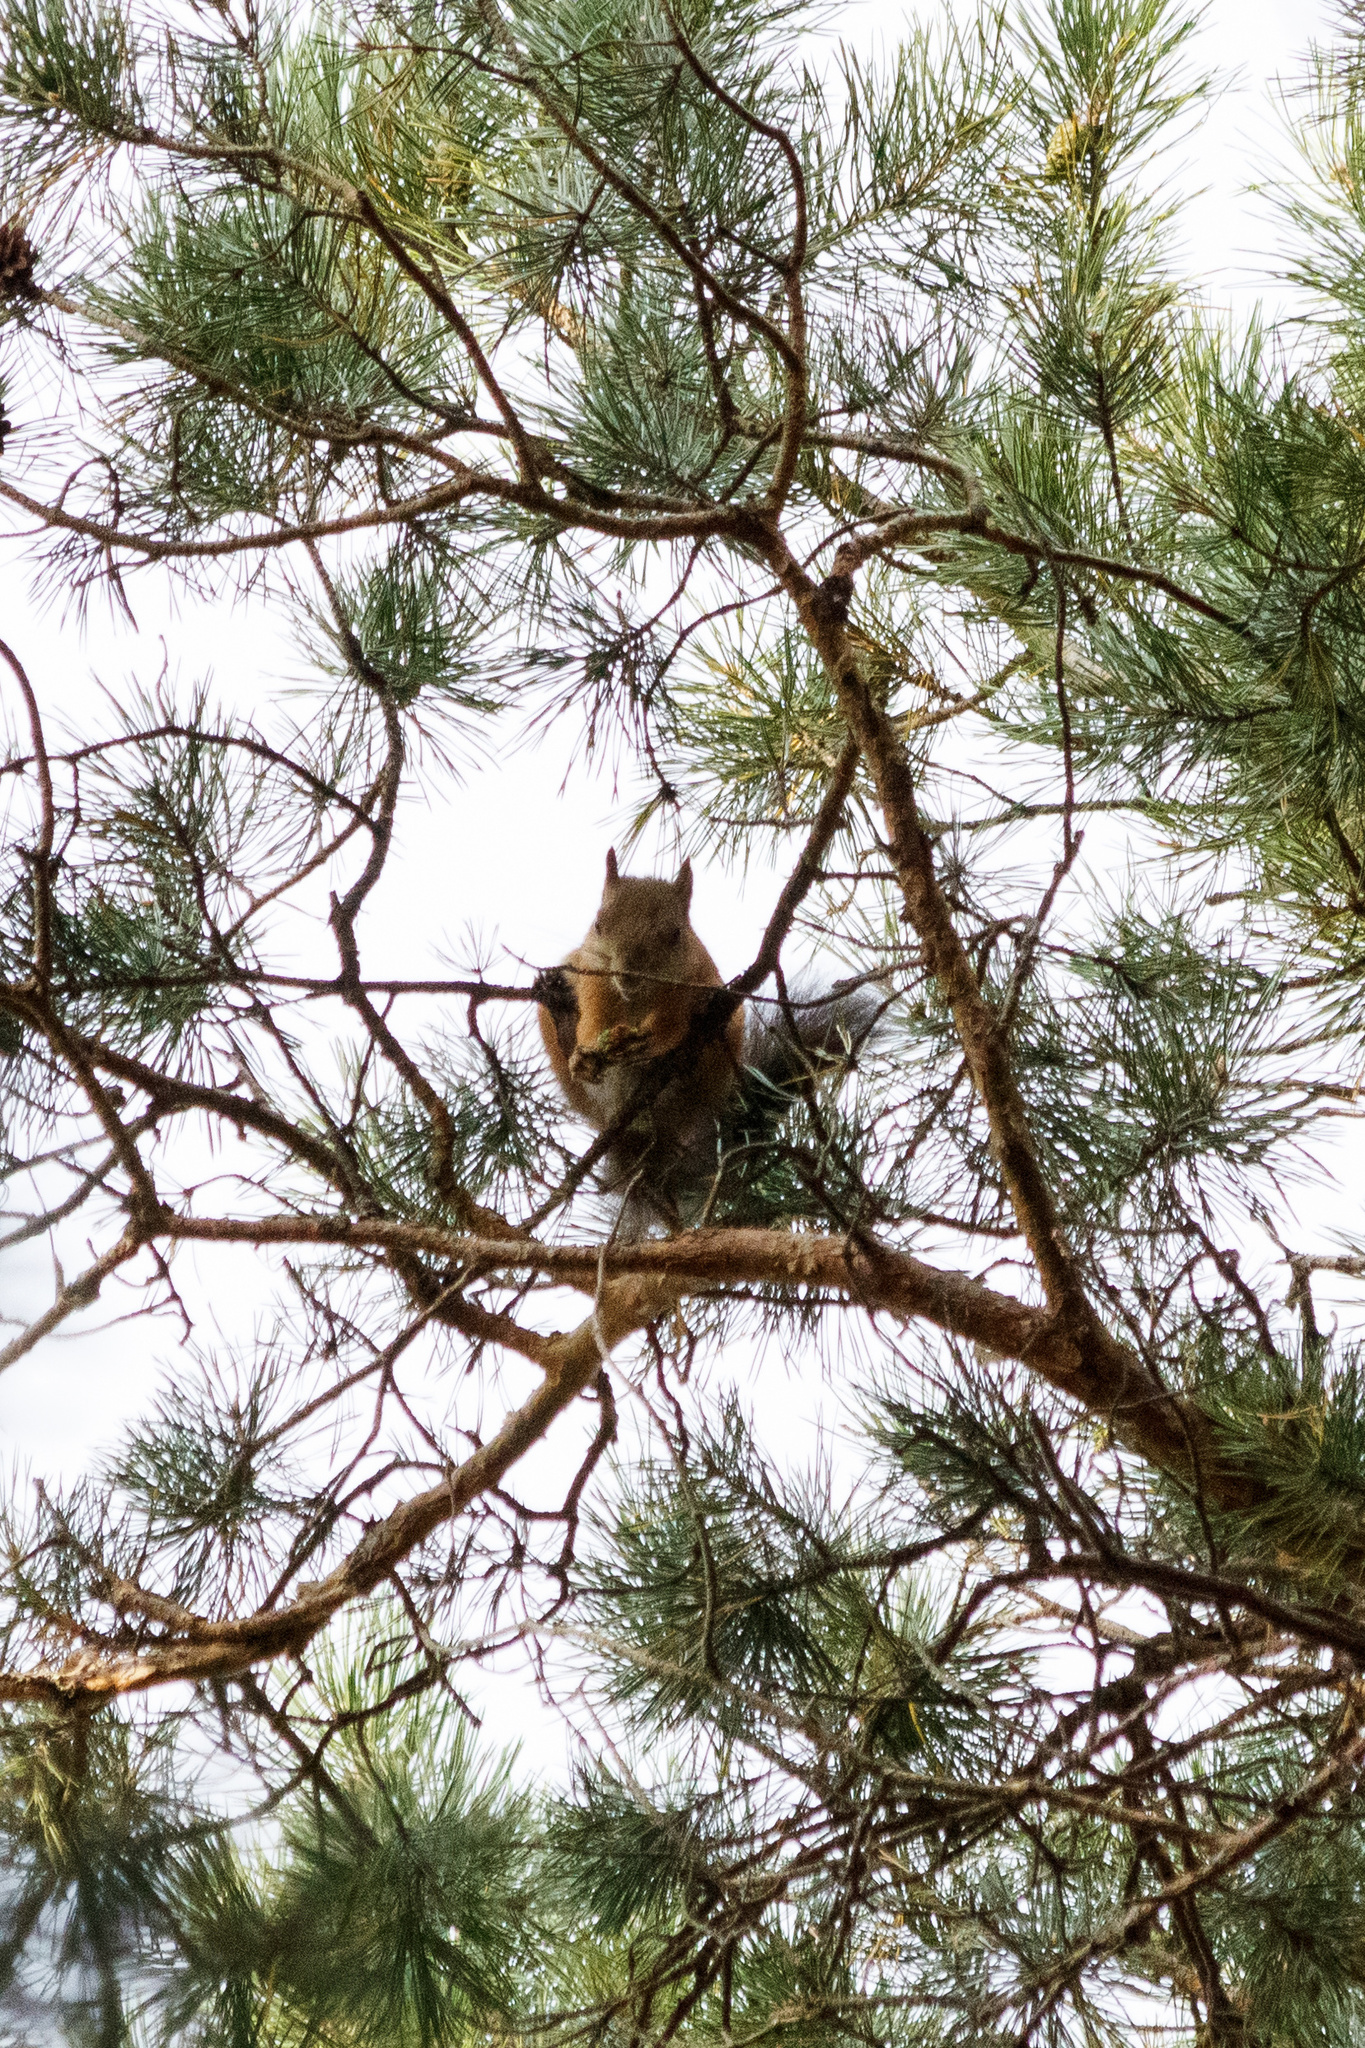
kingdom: Animalia
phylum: Chordata
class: Mammalia
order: Rodentia
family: Sciuridae
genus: Sciurus
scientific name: Sciurus vulgaris
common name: Eurasian red squirrel
